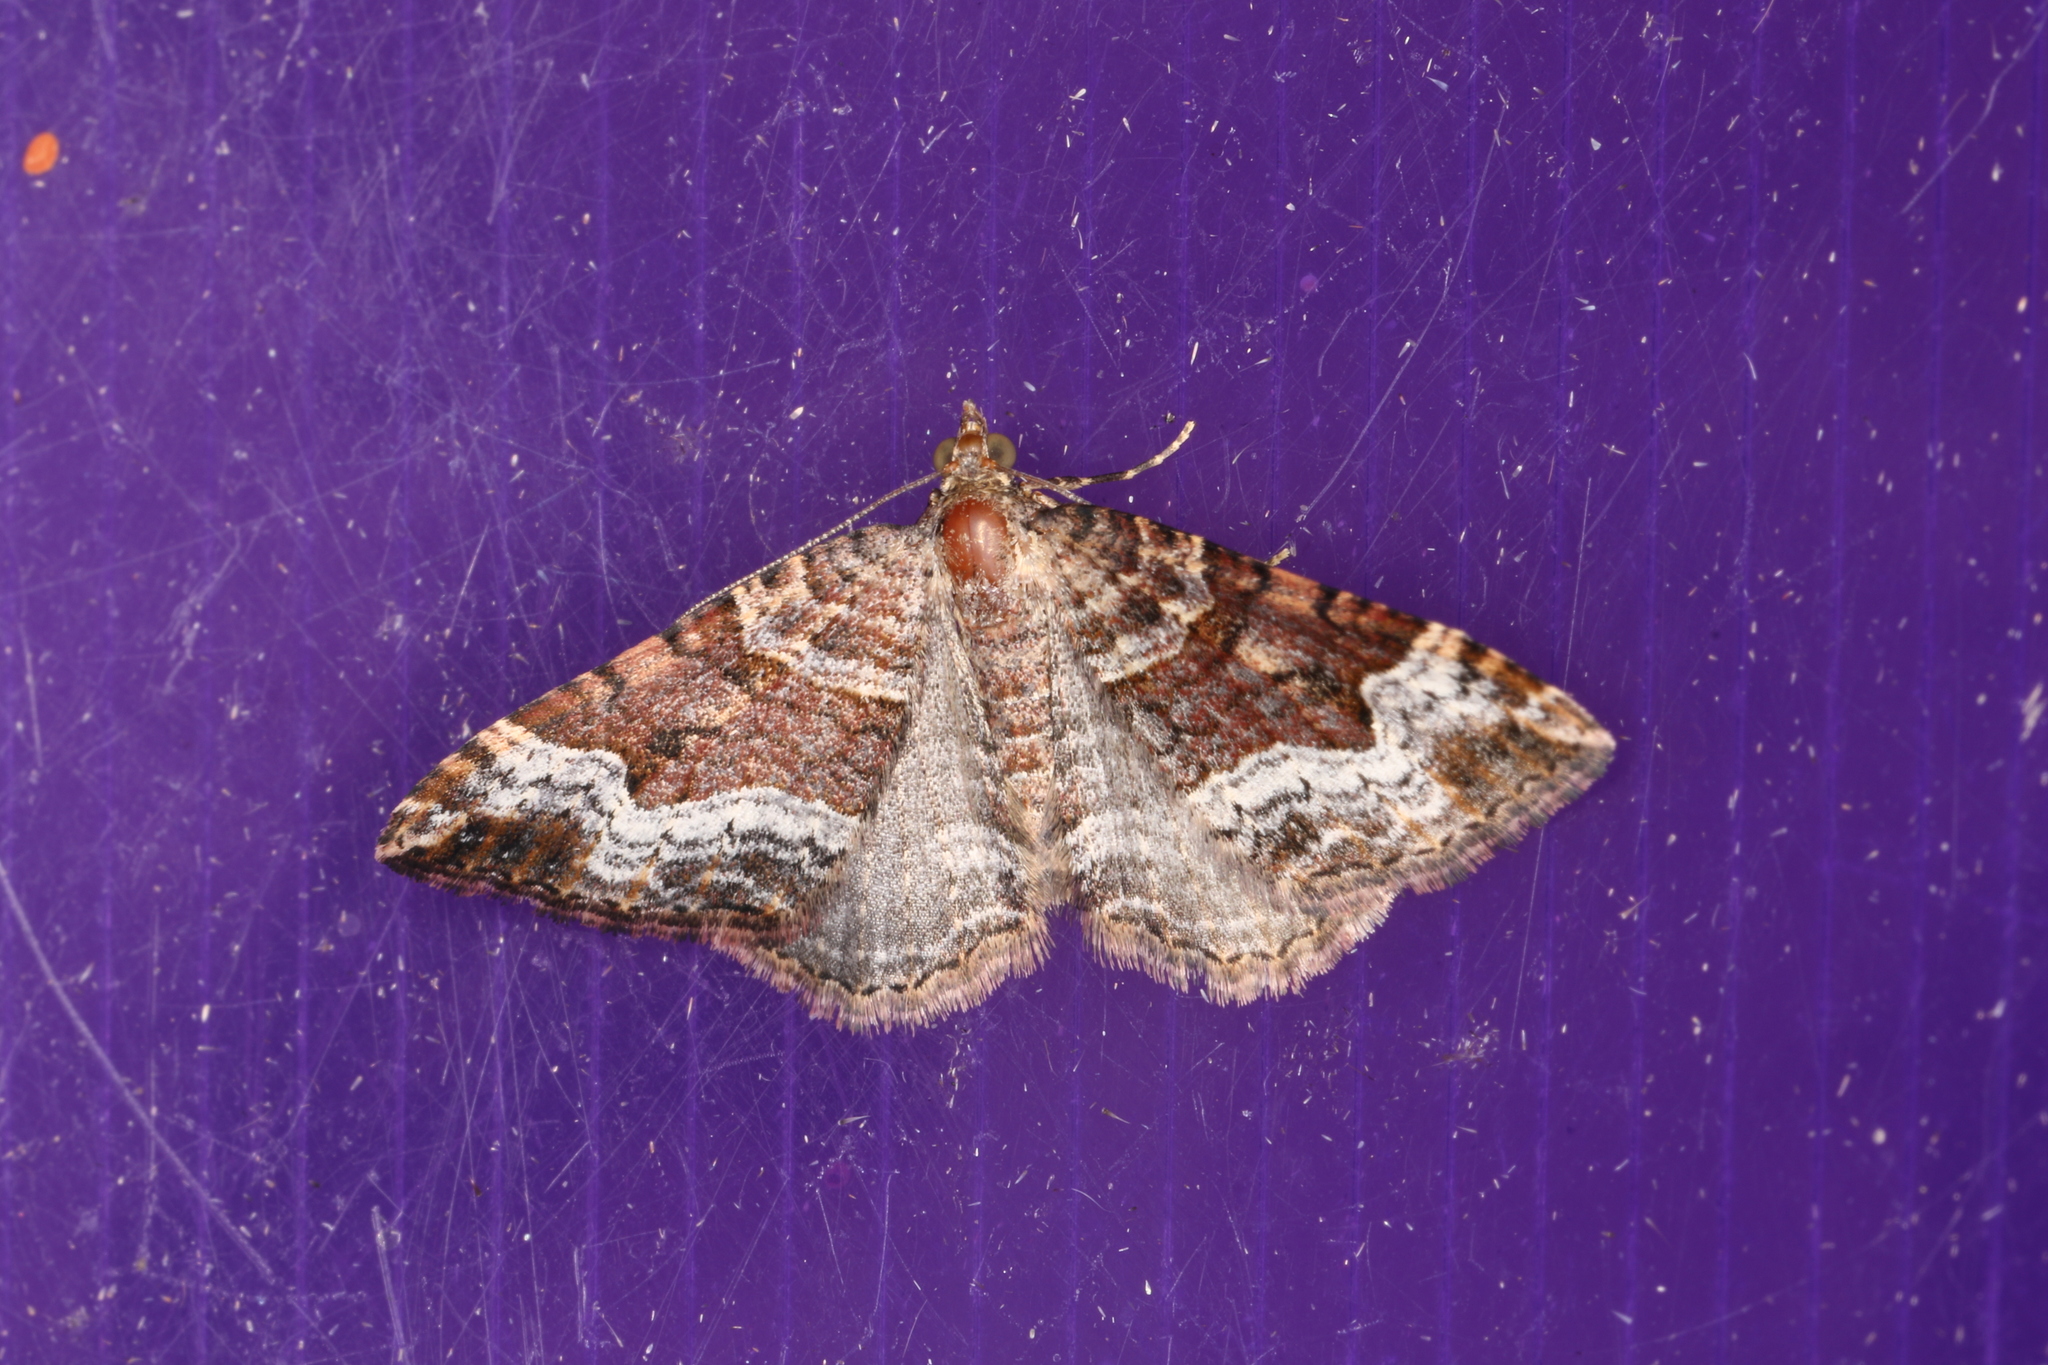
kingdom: Animalia
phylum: Arthropoda
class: Insecta
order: Lepidoptera
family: Geometridae
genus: Epyaxa
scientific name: Epyaxa subidaria
